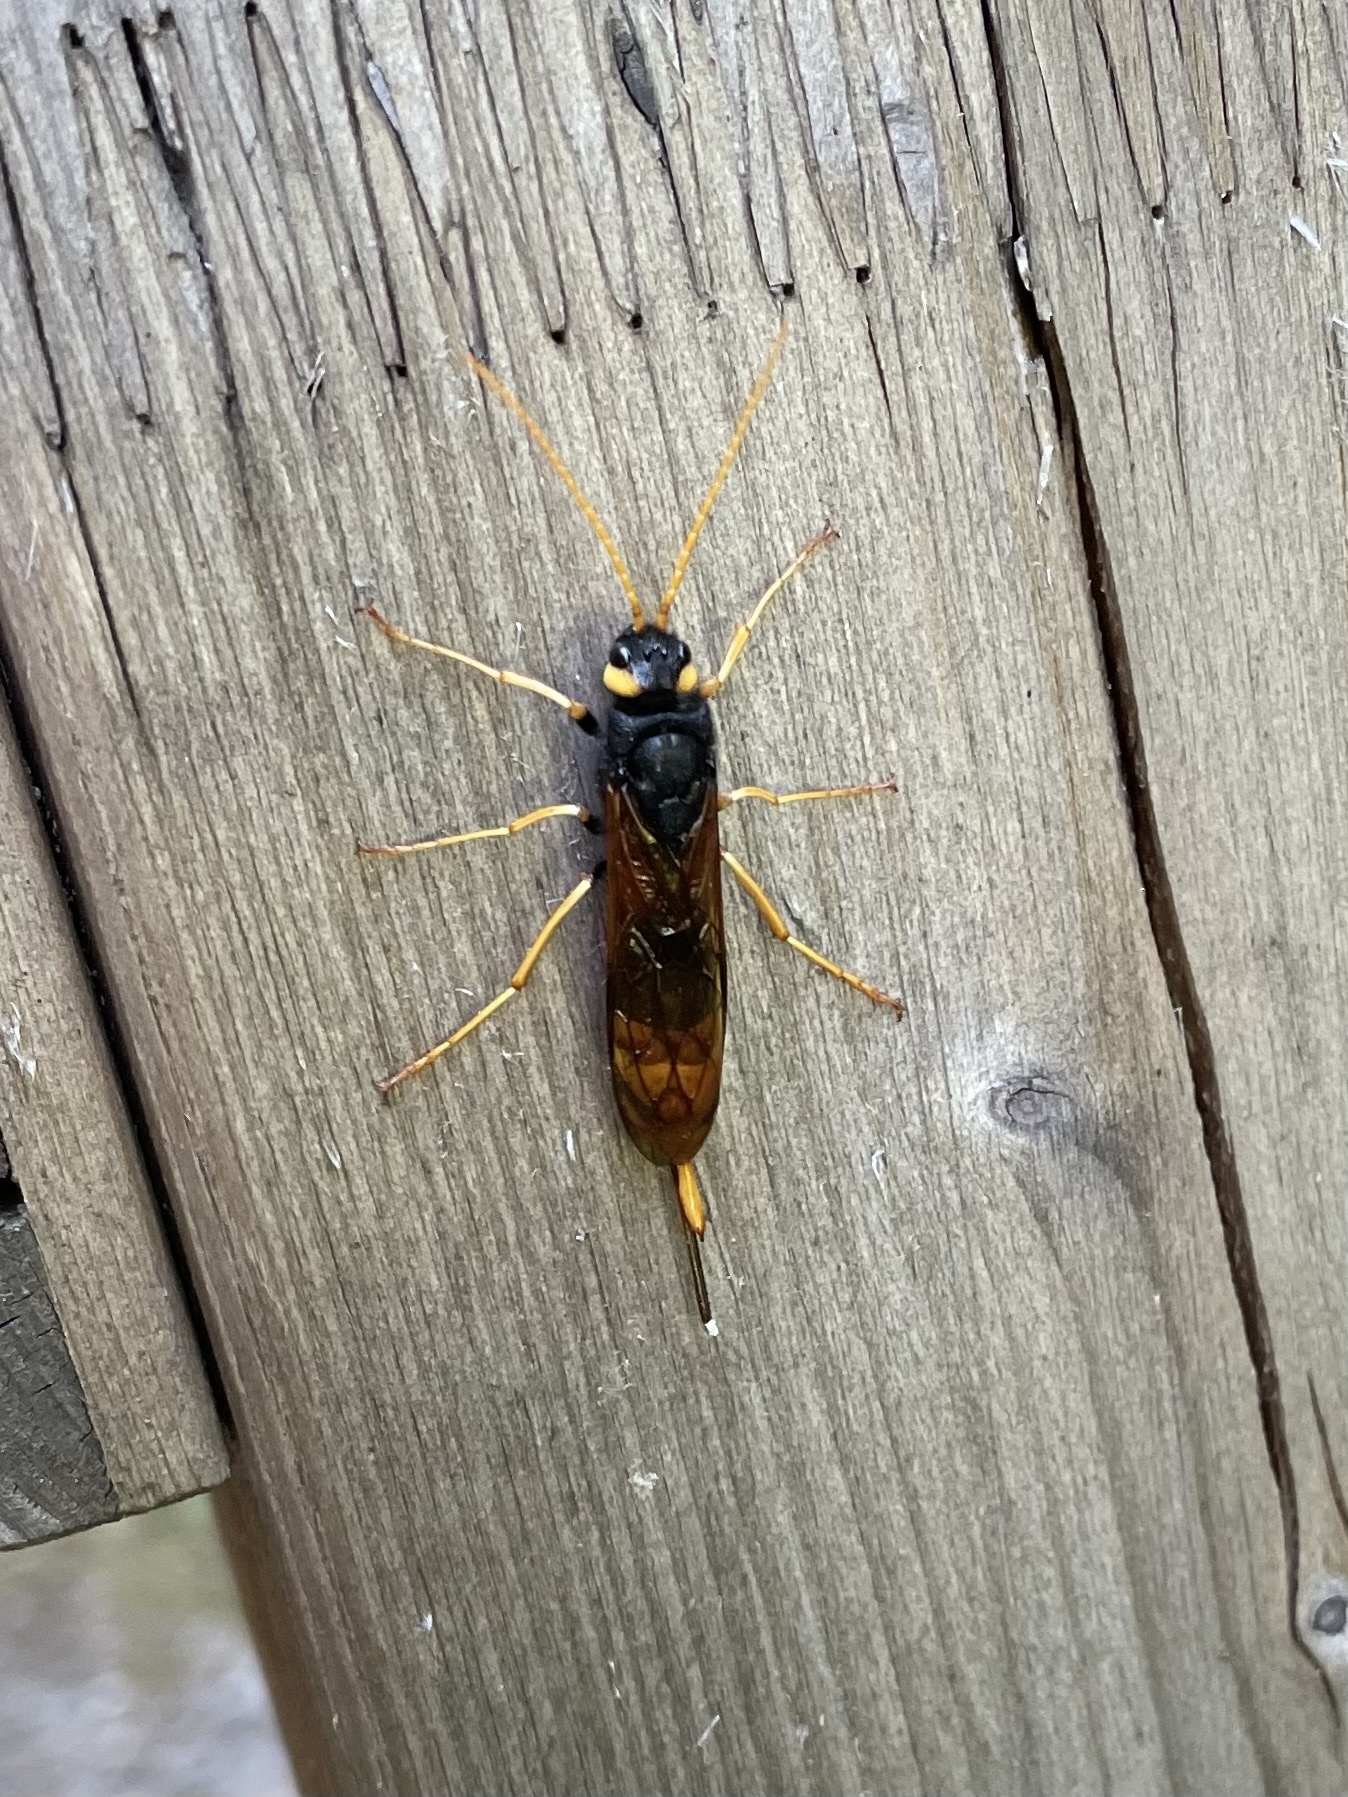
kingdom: Animalia
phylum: Arthropoda
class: Insecta
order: Hymenoptera
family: Siricidae
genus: Urocerus
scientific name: Urocerus gigas
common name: Giant woodwasp
